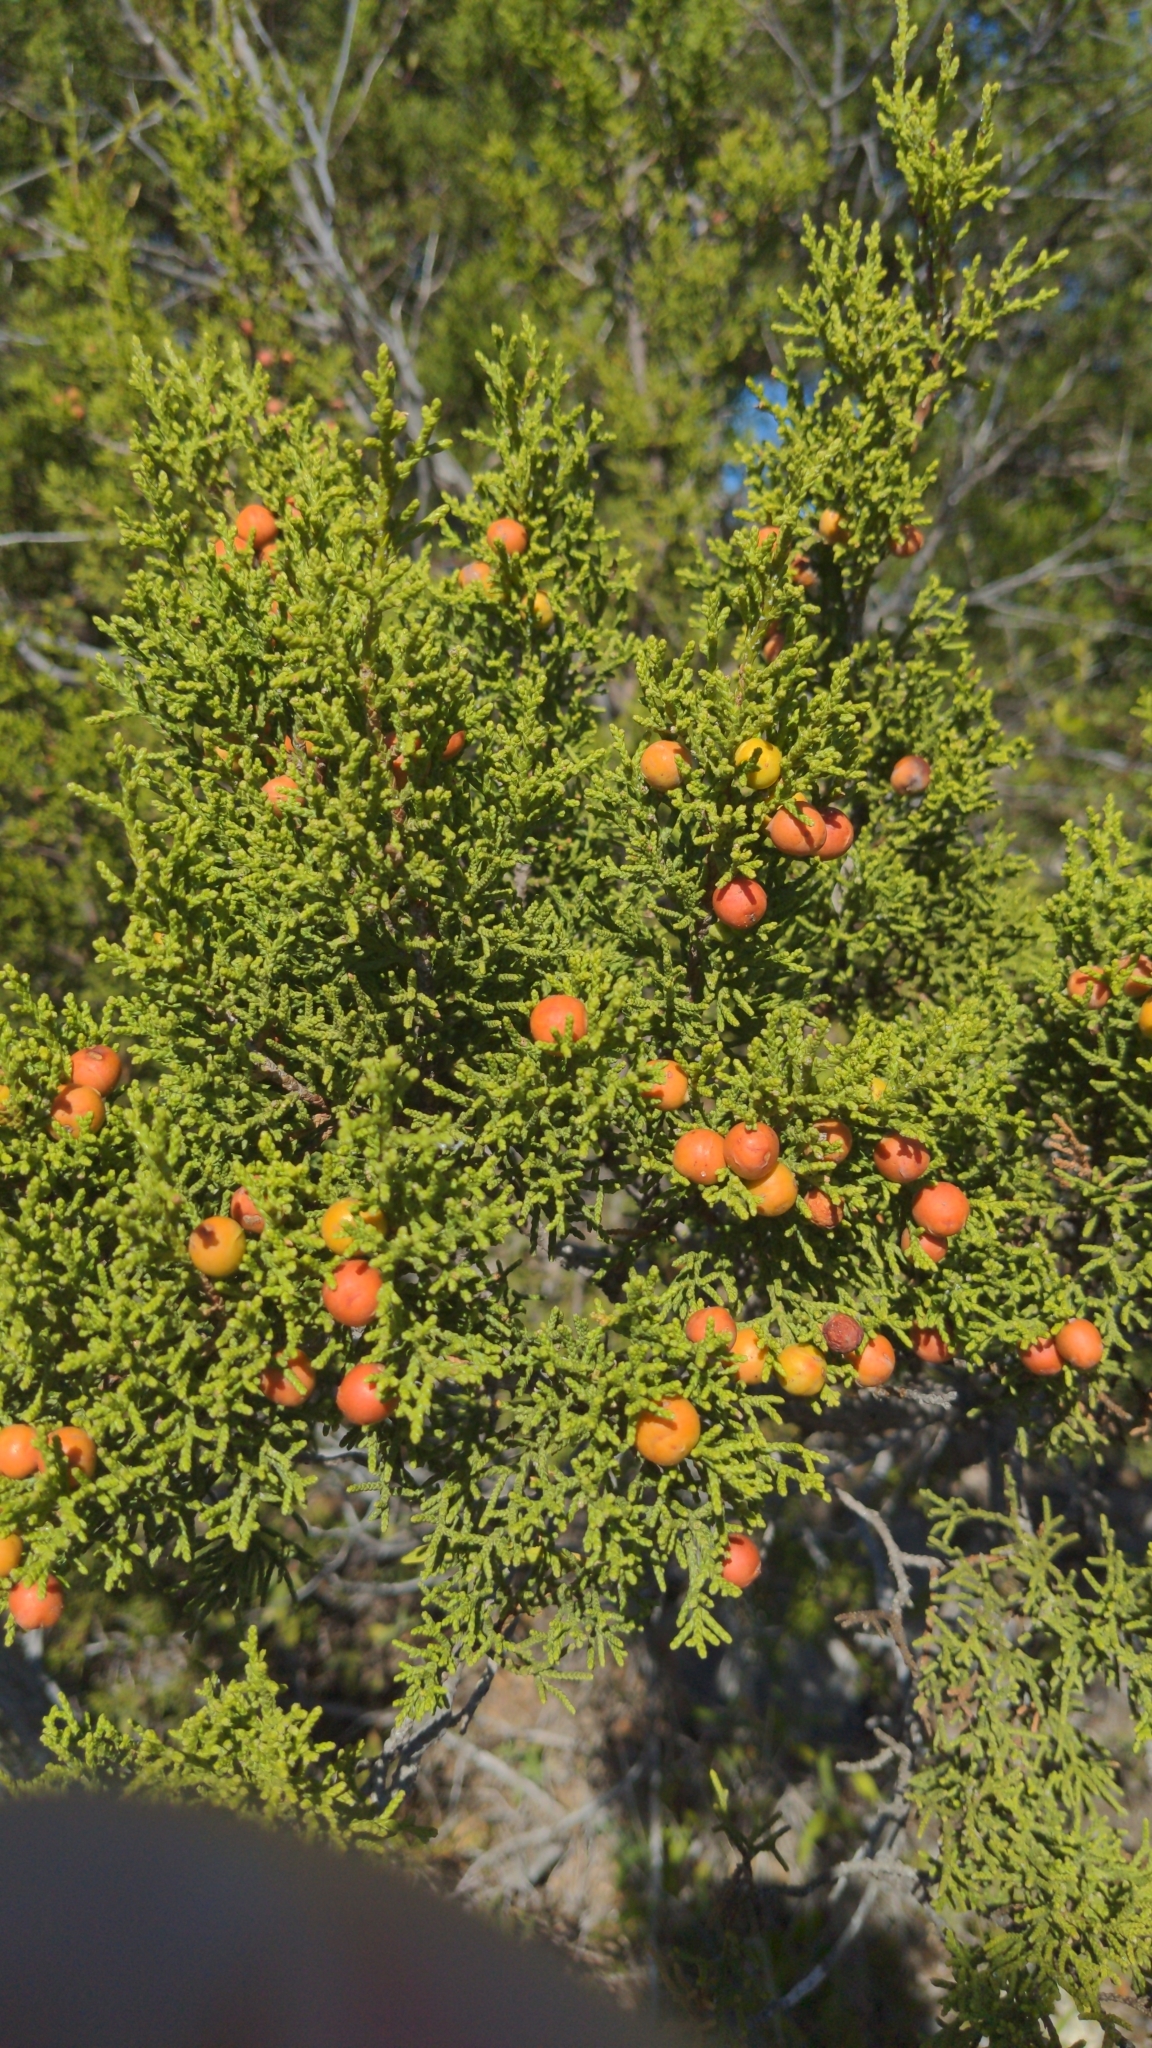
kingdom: Plantae
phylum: Tracheophyta
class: Pinopsida
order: Pinales
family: Cupressaceae
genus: Juniperus
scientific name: Juniperus pinchotii
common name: Pinchot juniper
